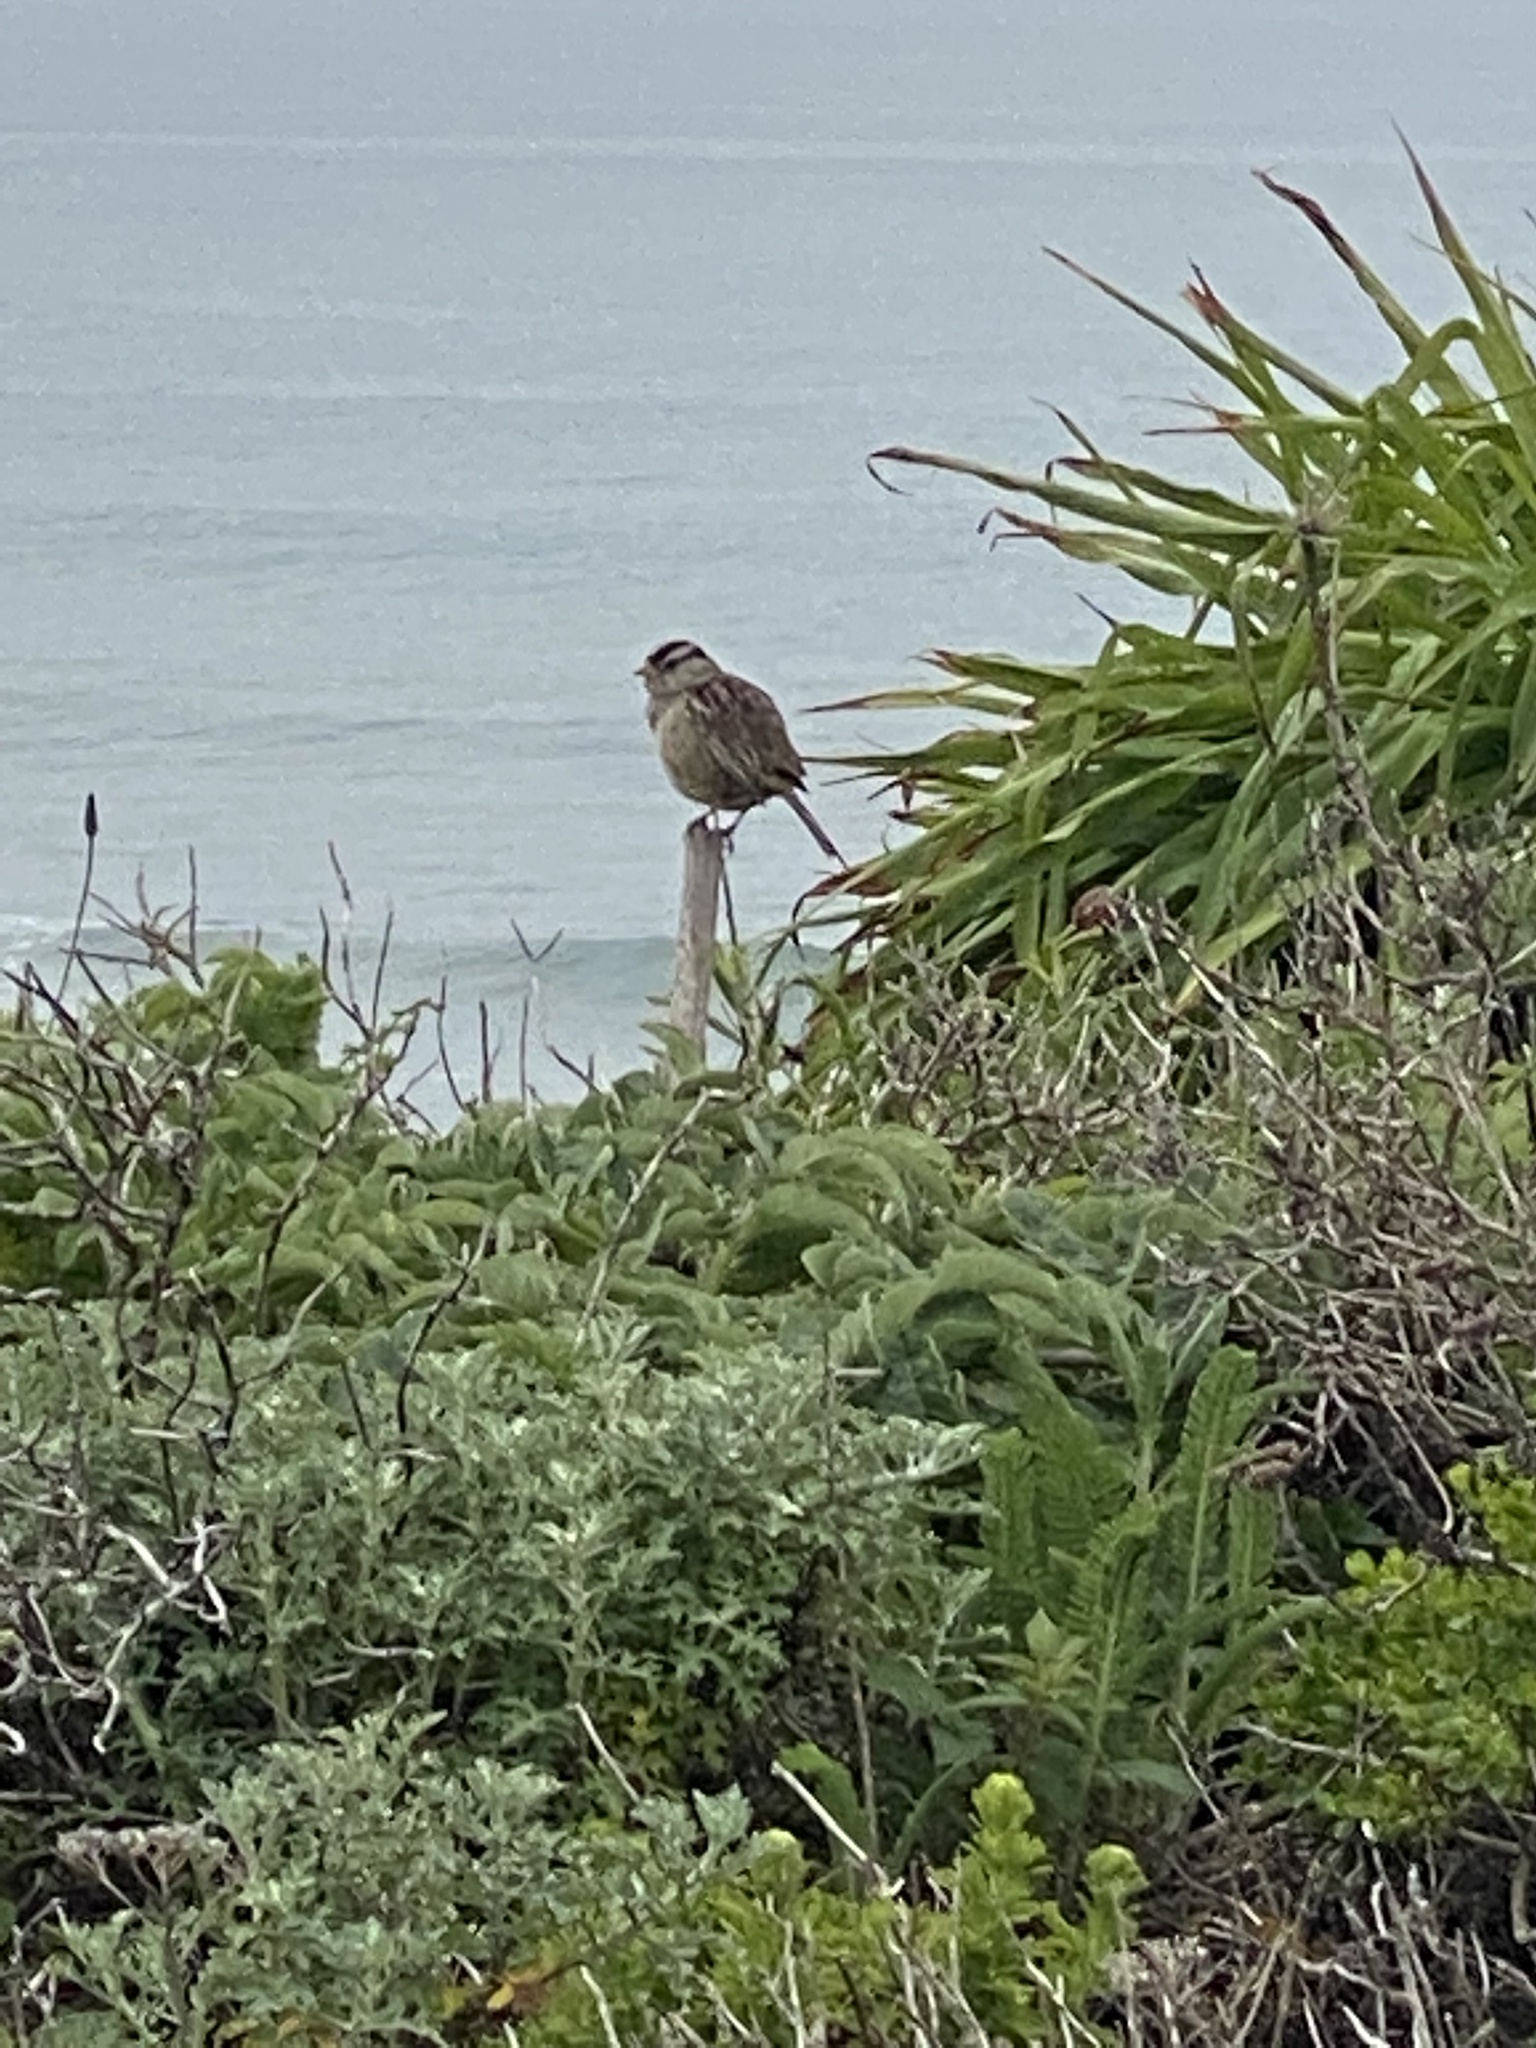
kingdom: Animalia
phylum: Chordata
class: Aves
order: Passeriformes
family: Passerellidae
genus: Zonotrichia
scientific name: Zonotrichia leucophrys
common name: White-crowned sparrow
